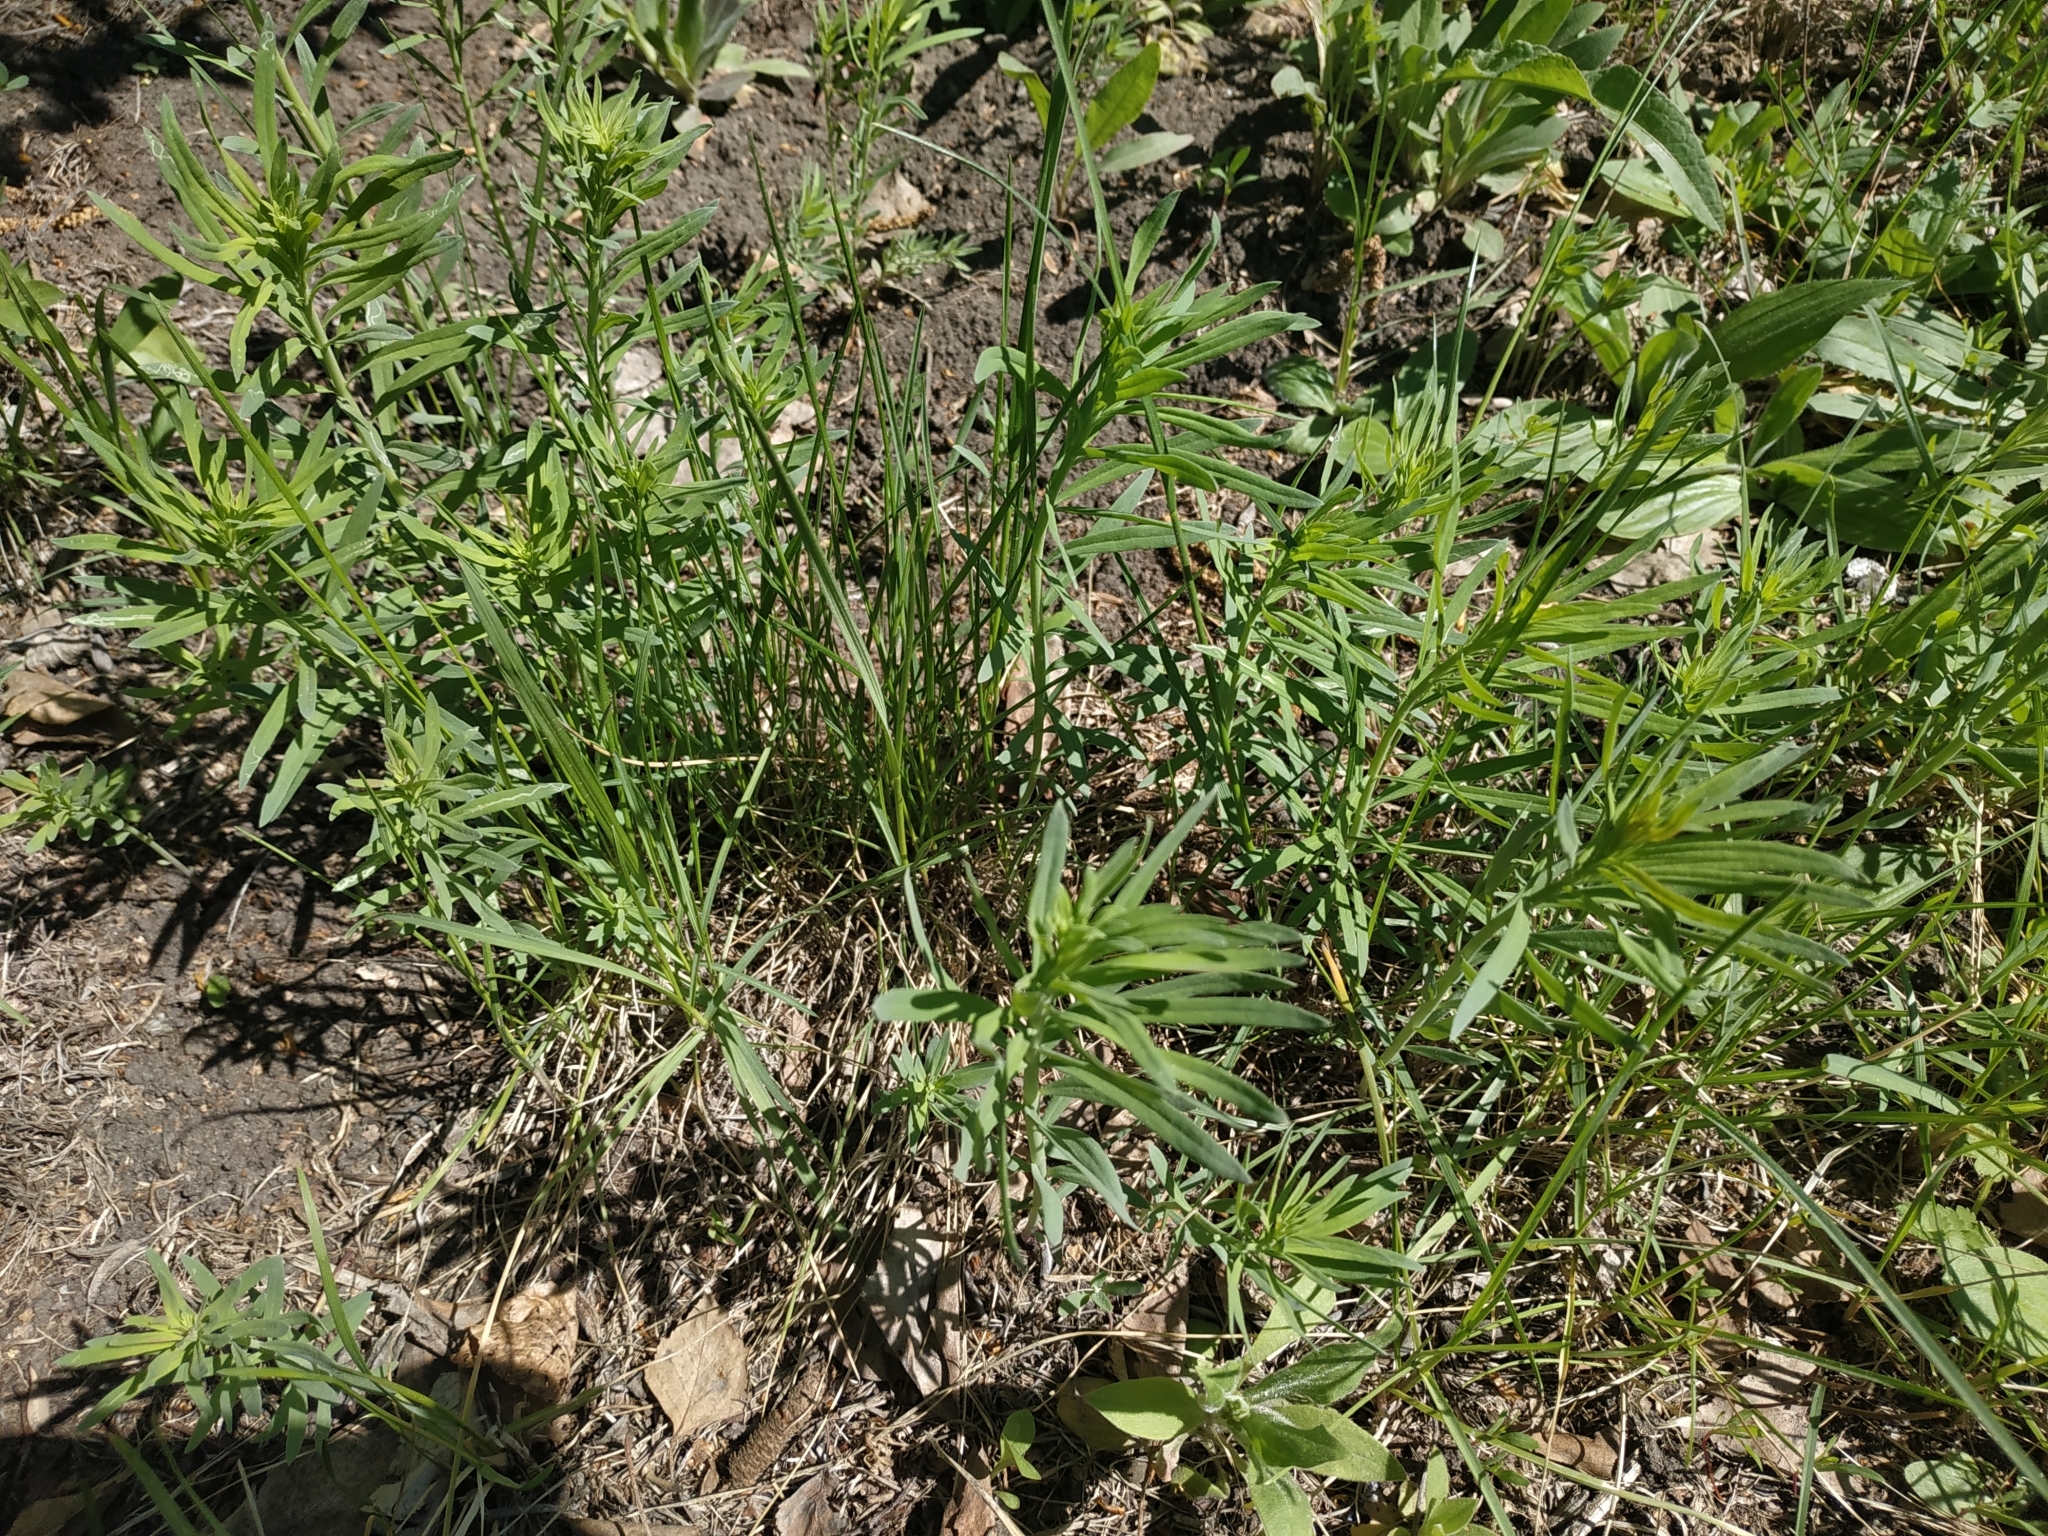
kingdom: Plantae
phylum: Tracheophyta
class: Magnoliopsida
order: Lamiales
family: Plantaginaceae
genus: Linaria
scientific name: Linaria vulgaris
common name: Butter and eggs
